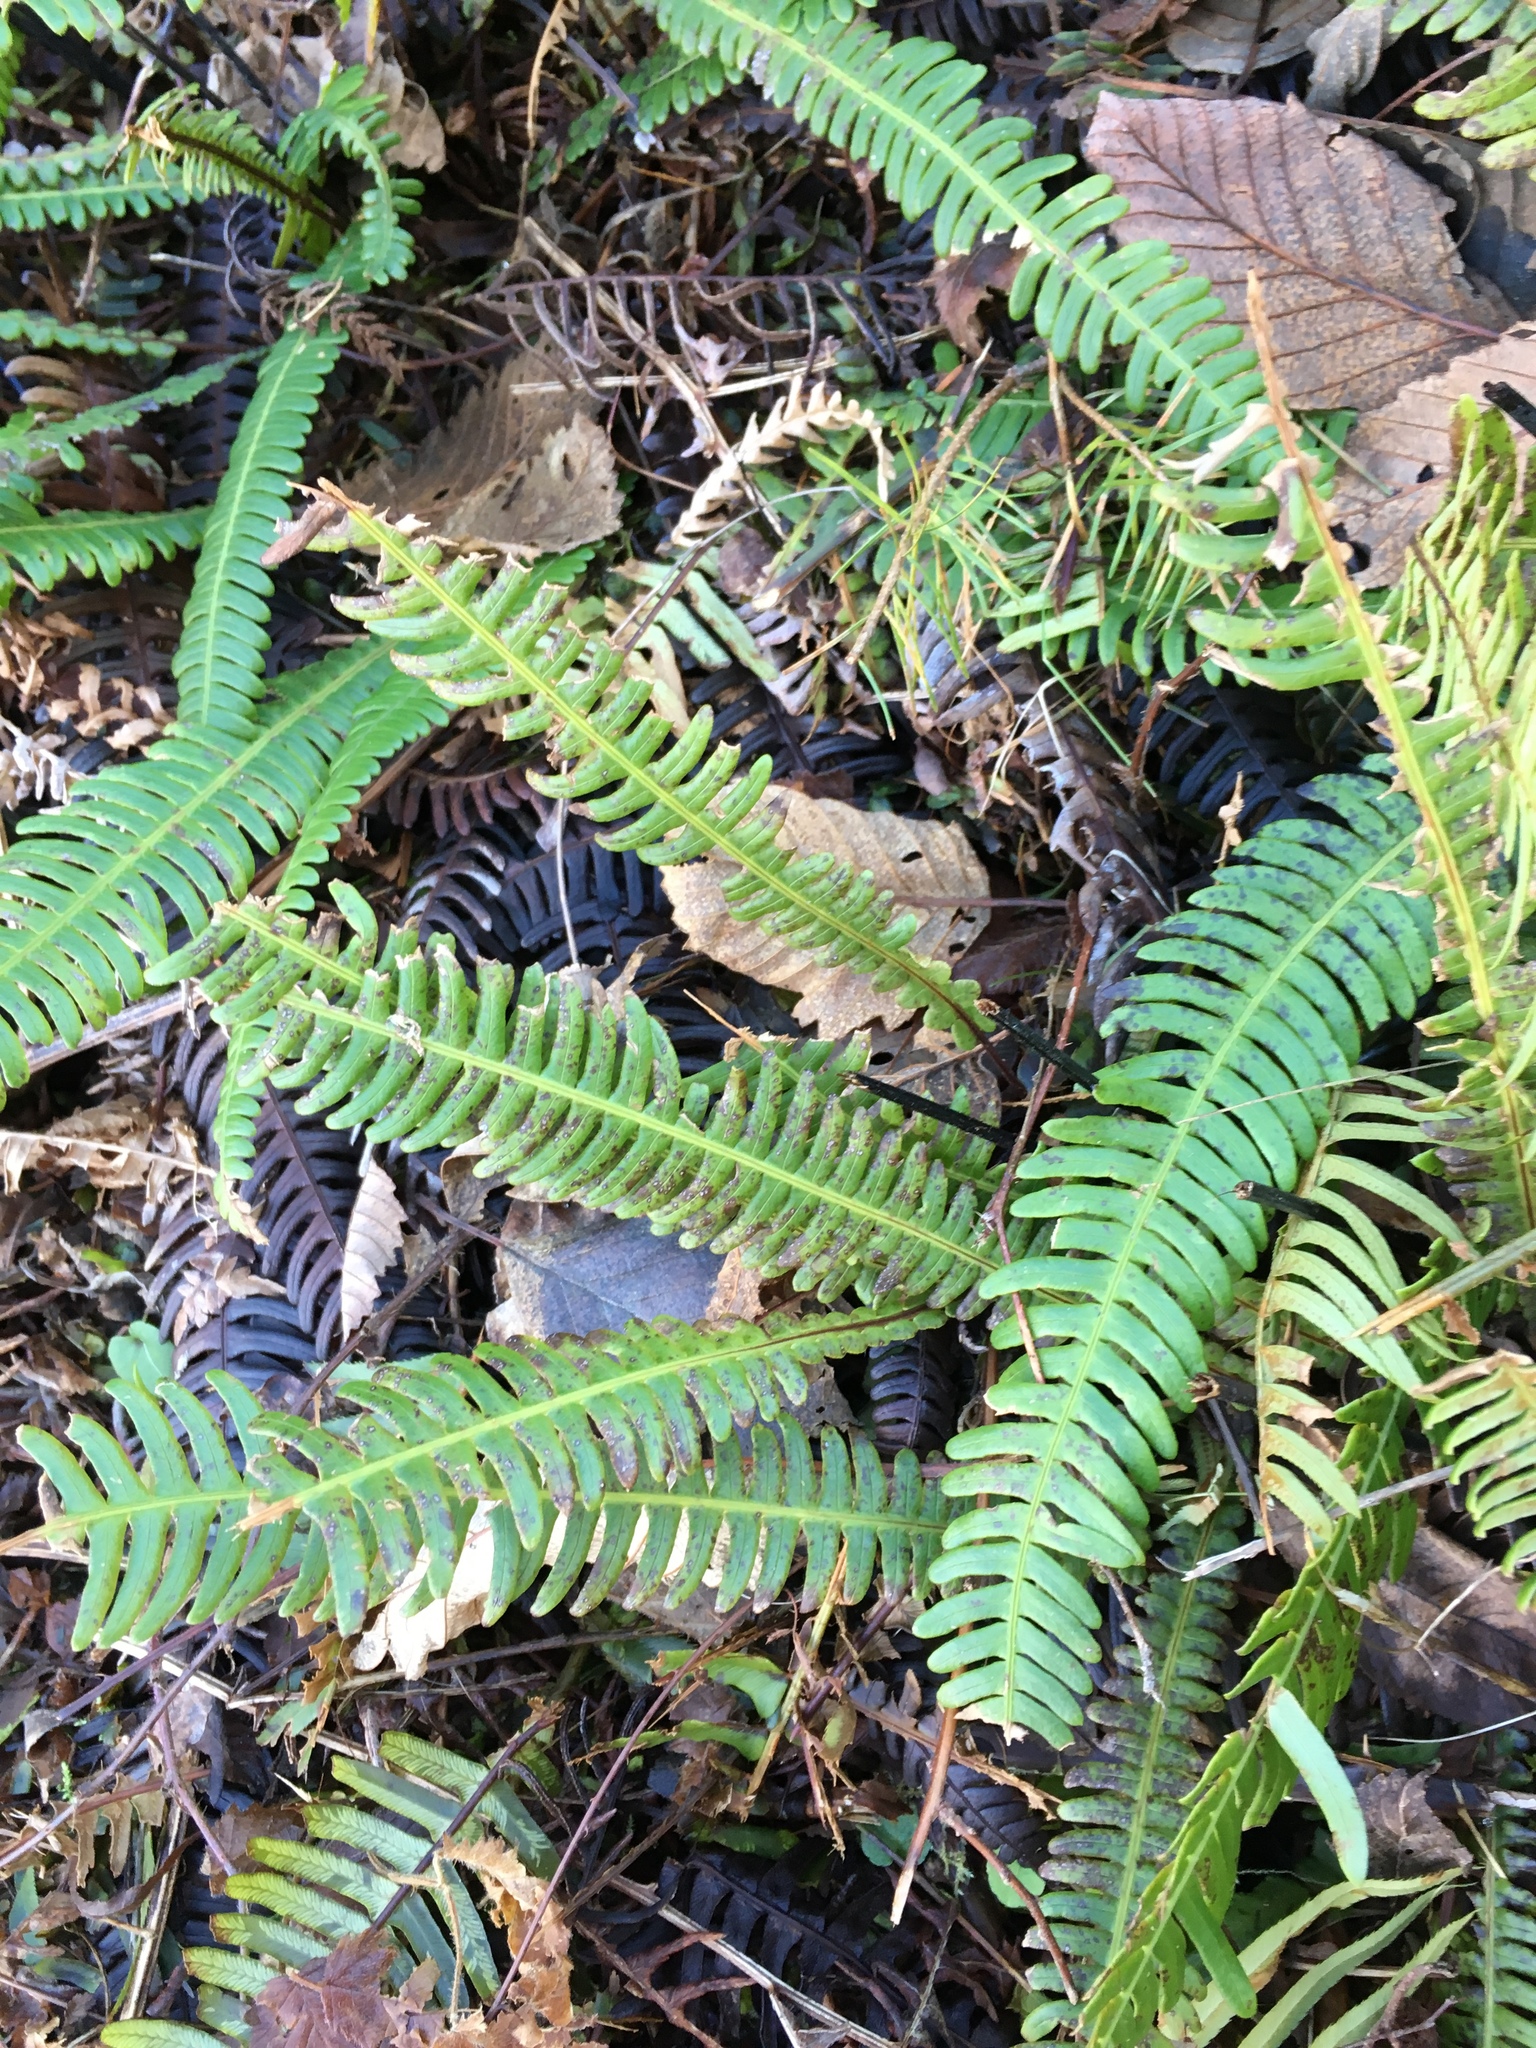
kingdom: Plantae
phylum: Tracheophyta
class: Polypodiopsida
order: Polypodiales
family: Blechnaceae
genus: Struthiopteris
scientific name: Struthiopteris spicant
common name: Deer fern
